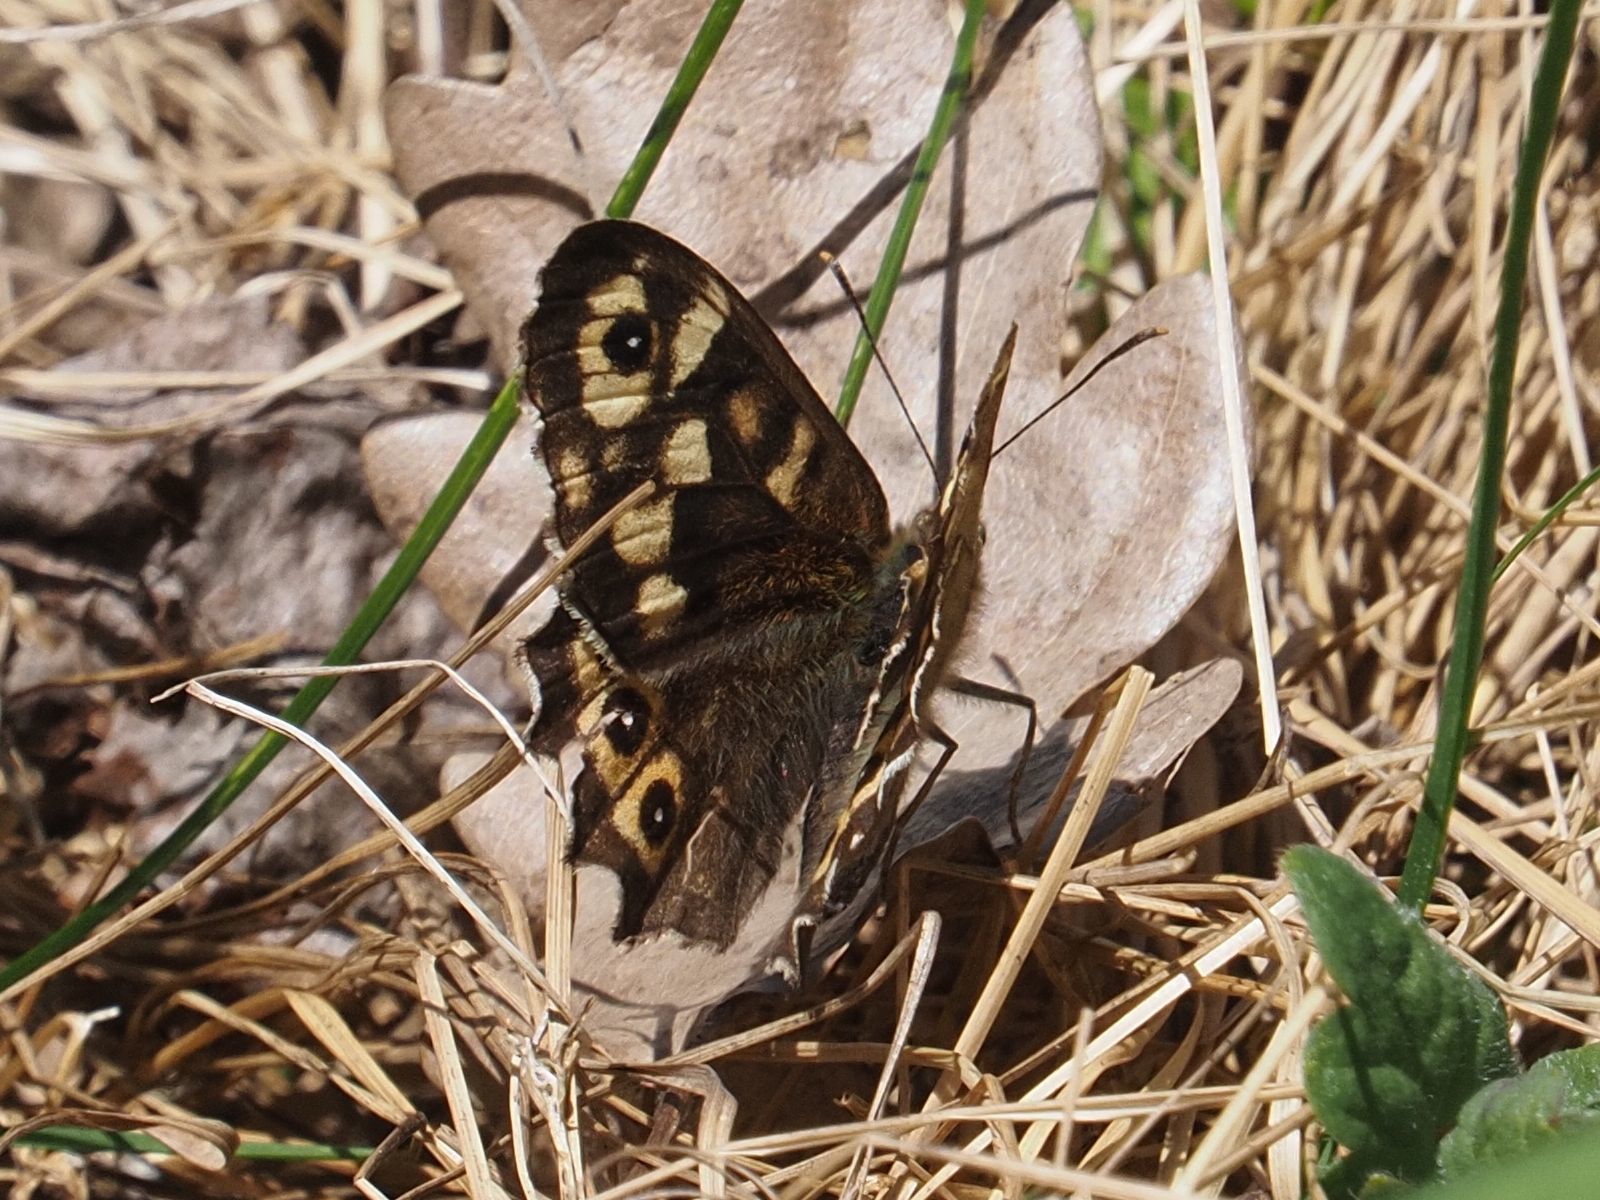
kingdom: Animalia
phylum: Arthropoda
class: Insecta
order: Lepidoptera
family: Nymphalidae
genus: Pararge
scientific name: Pararge aegeria
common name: Speckled wood
